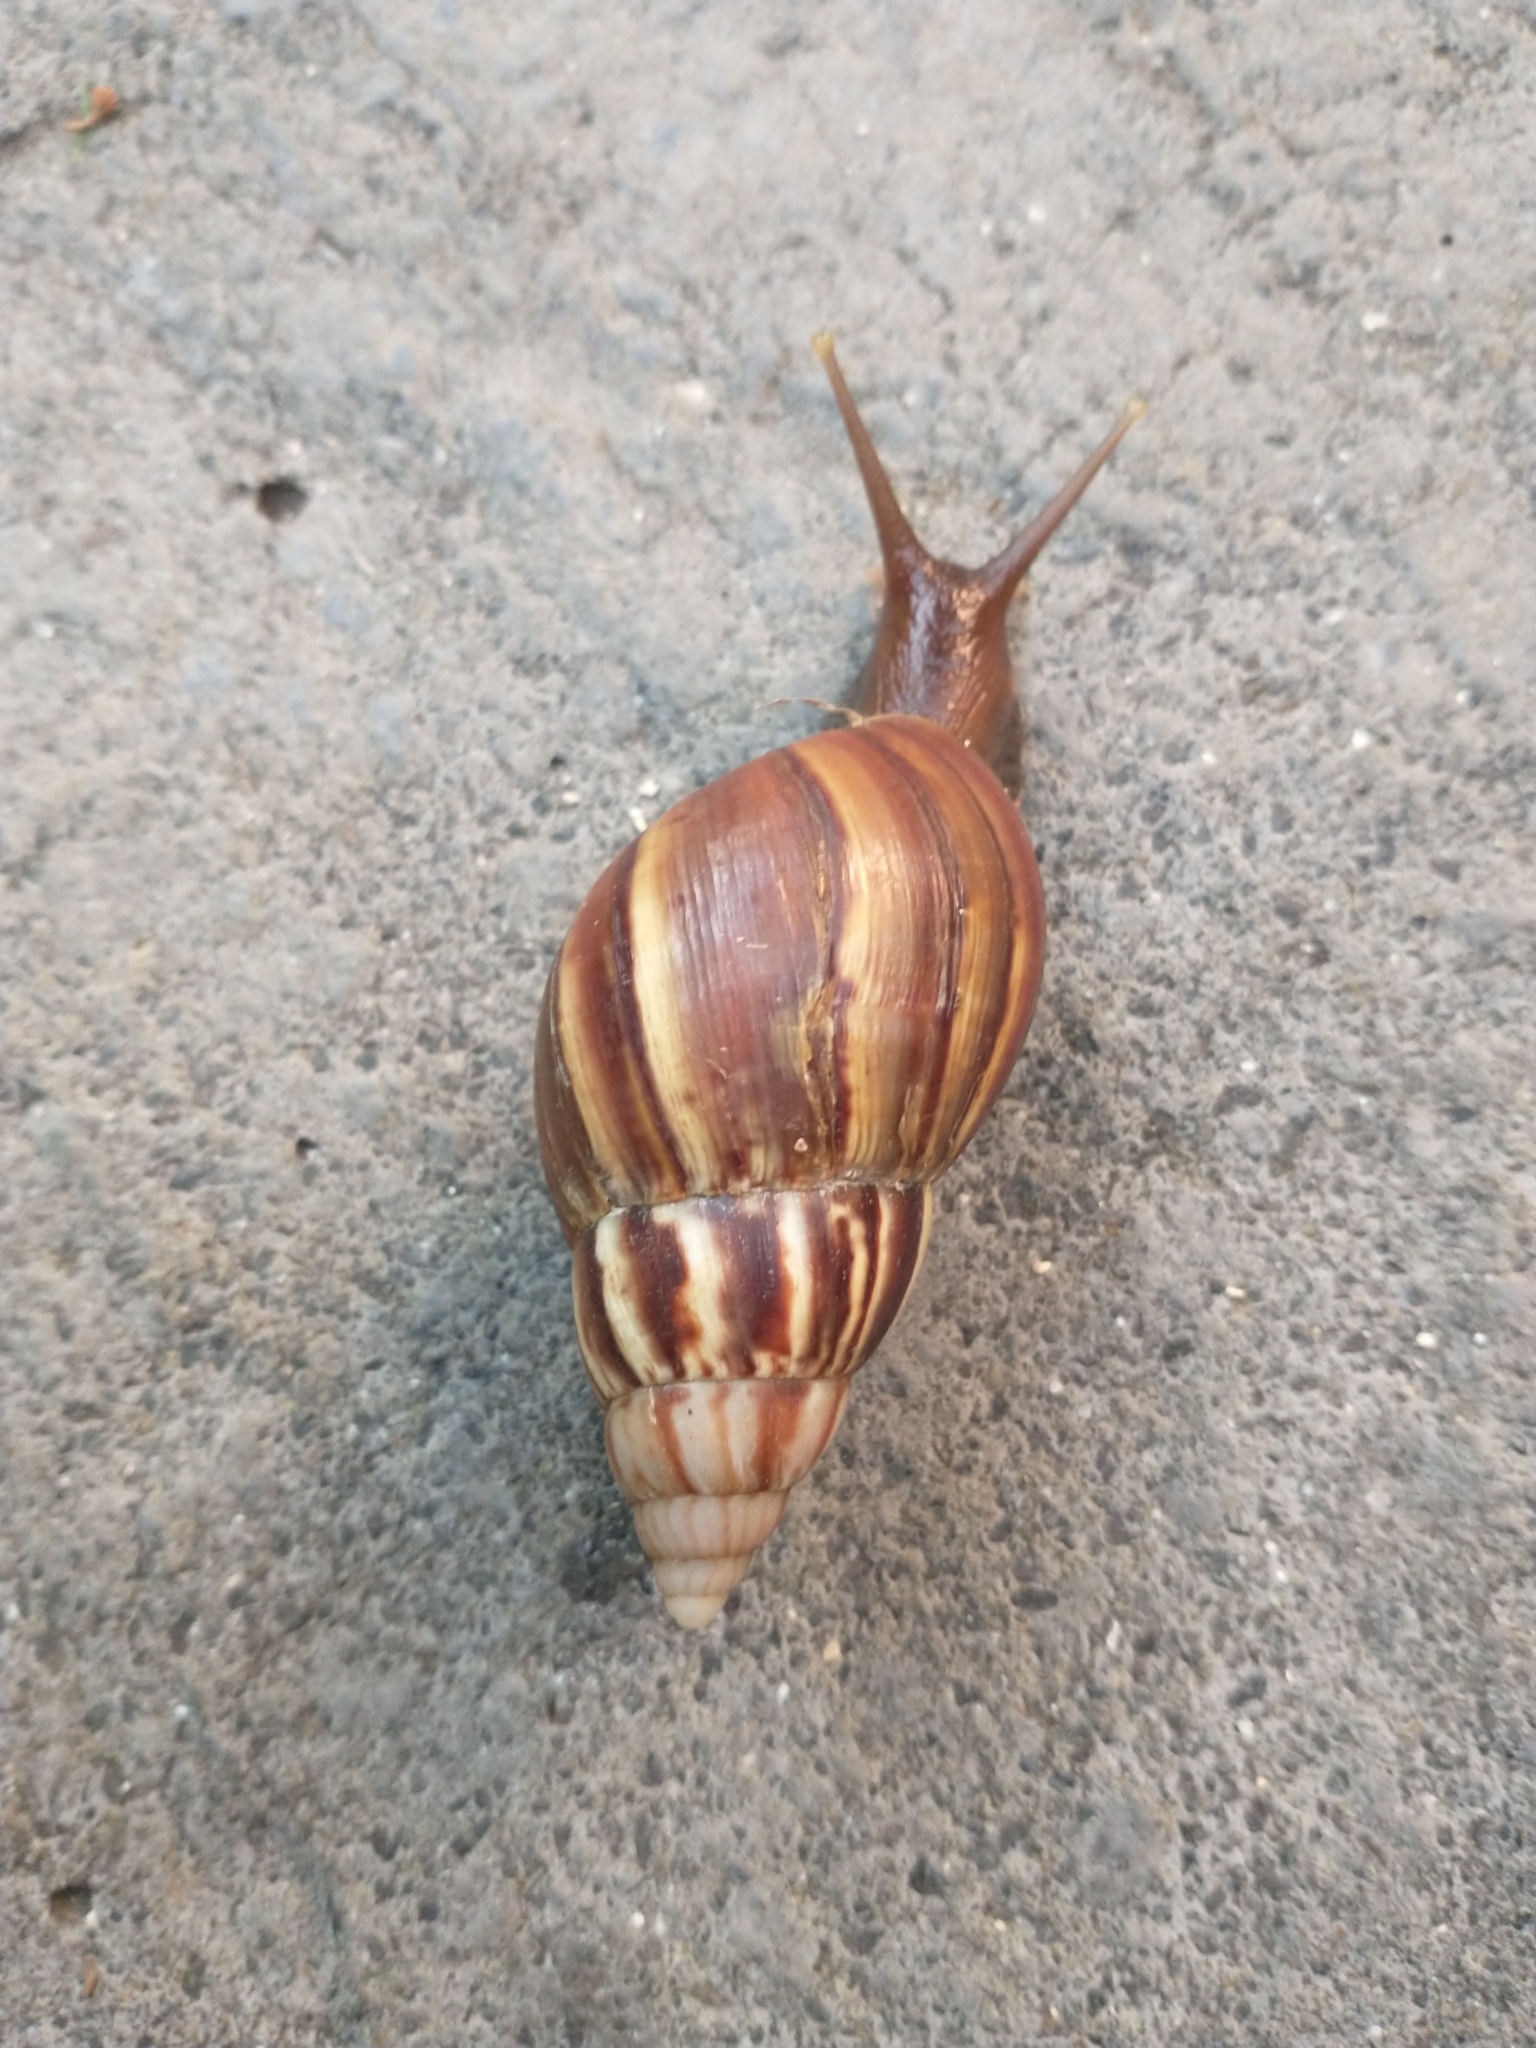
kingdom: Animalia
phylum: Mollusca
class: Gastropoda
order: Stylommatophora
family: Achatinidae
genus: Lissachatina
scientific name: Lissachatina fulica
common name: Giant african snail
